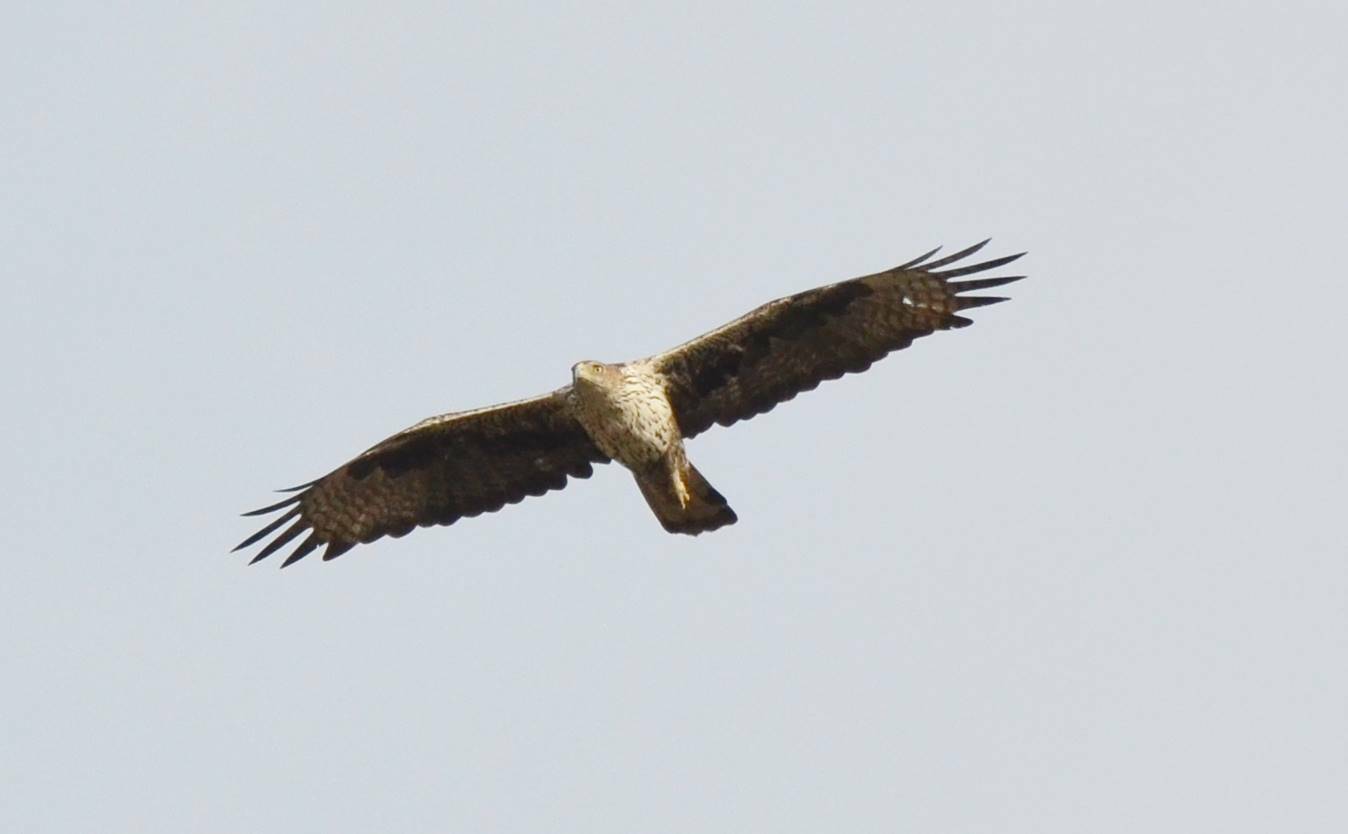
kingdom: Animalia
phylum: Chordata
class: Aves
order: Accipitriformes
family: Accipitridae
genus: Aquila
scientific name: Aquila fasciata
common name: Bonelli's eagle
